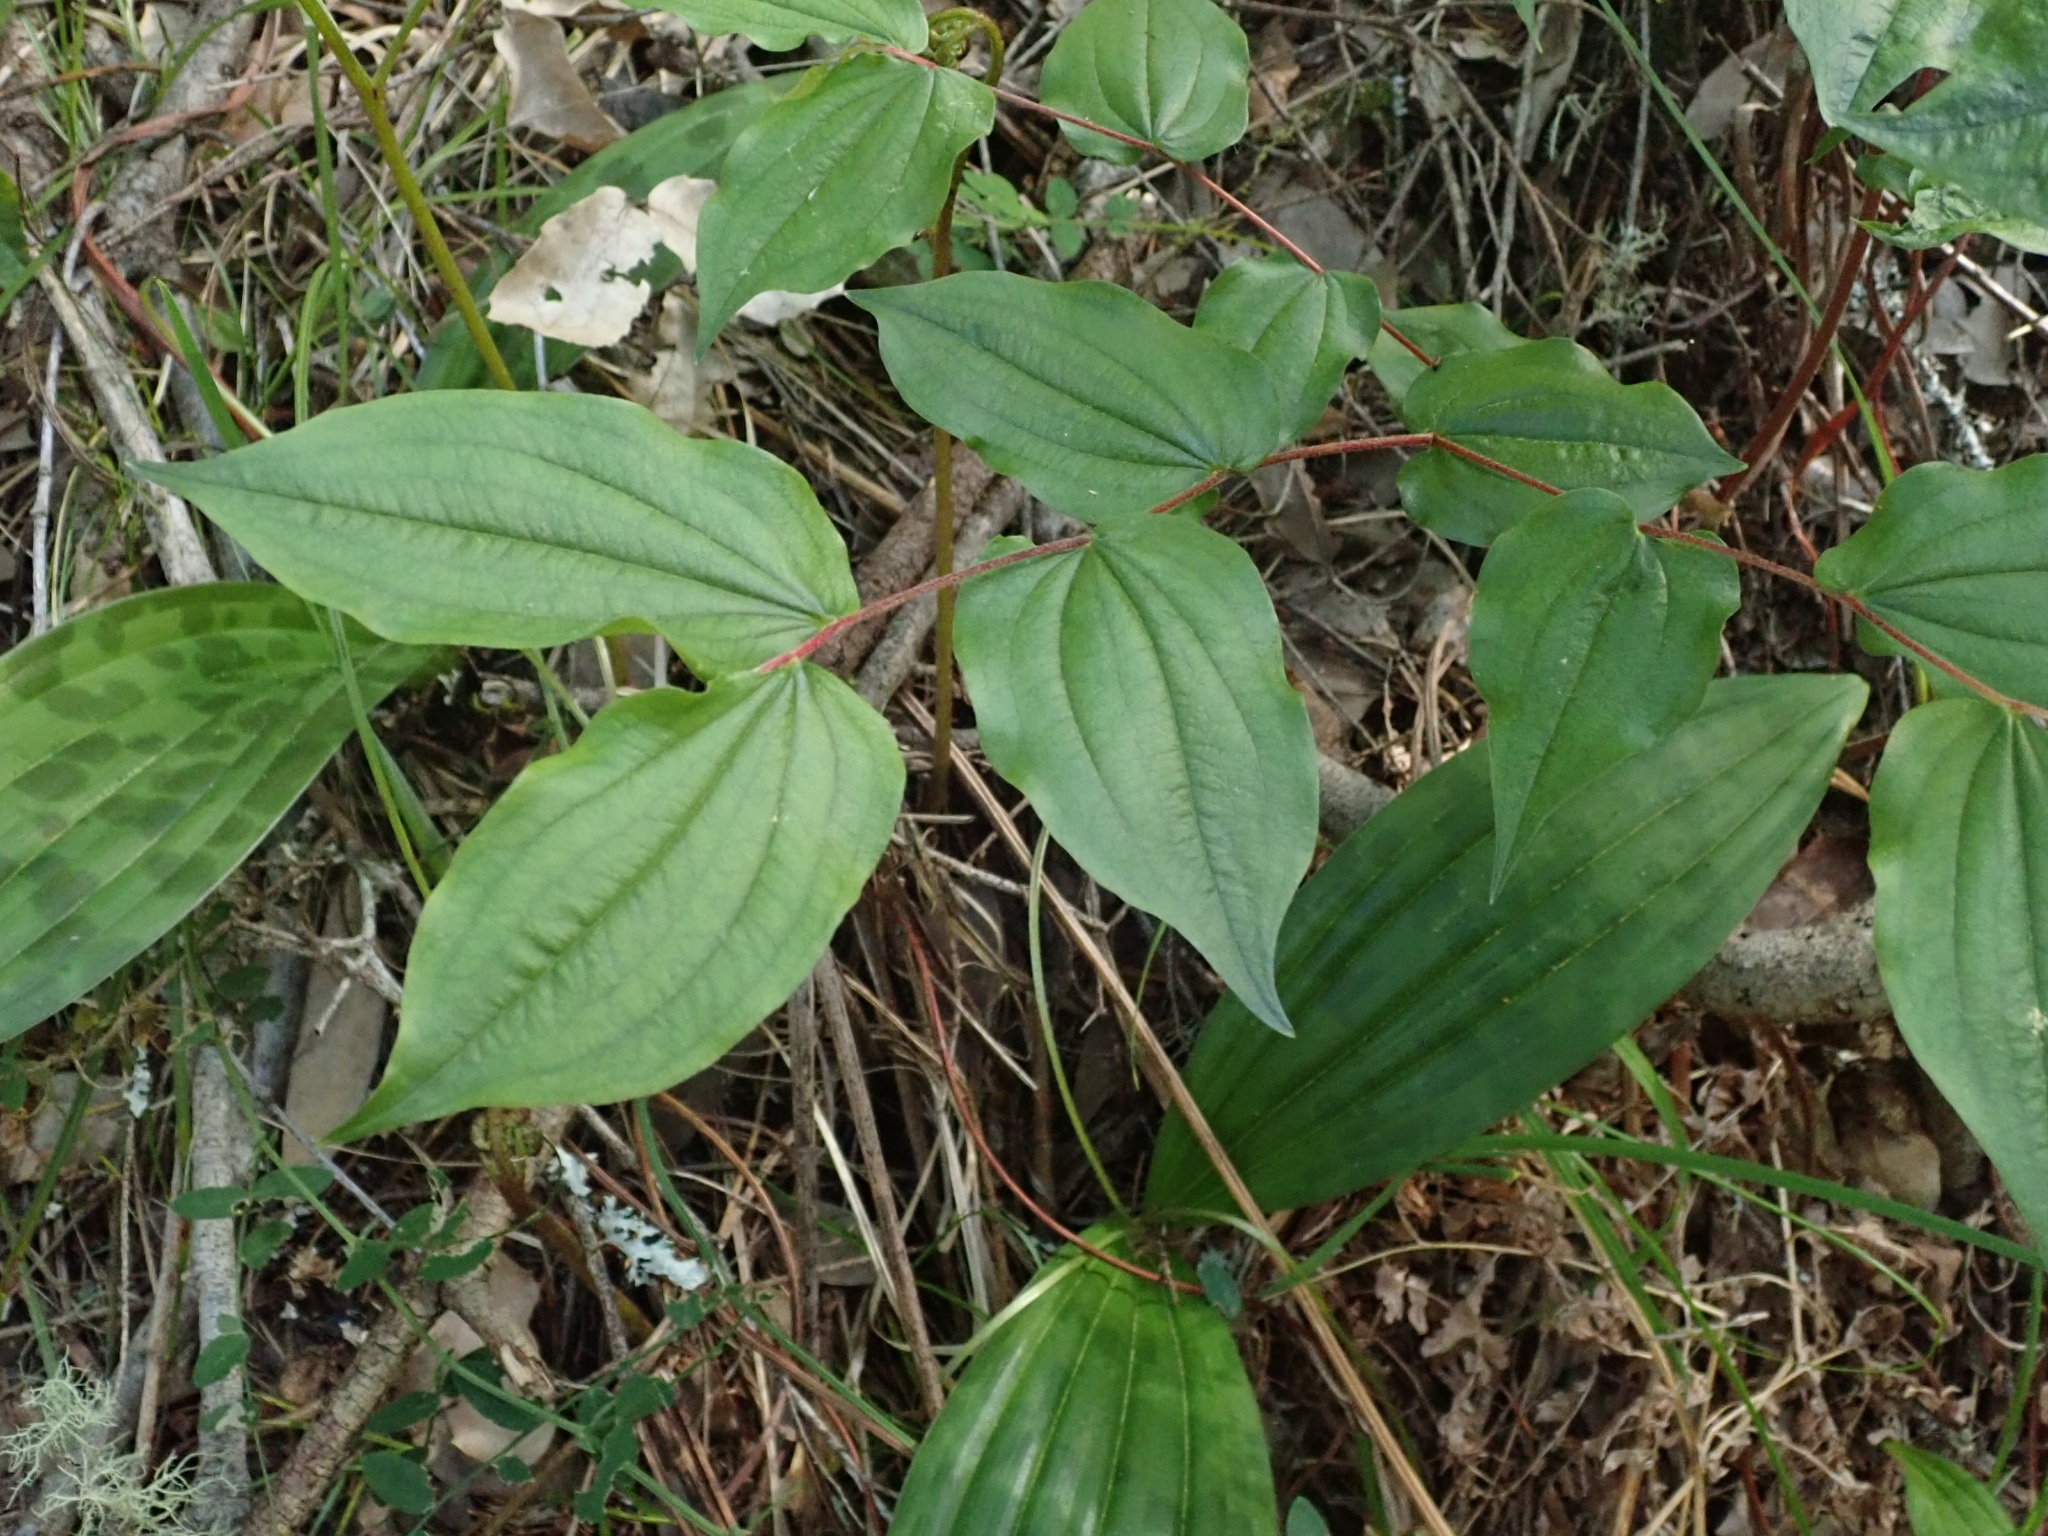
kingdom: Plantae
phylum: Tracheophyta
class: Liliopsida
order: Liliales
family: Liliaceae
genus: Prosartes
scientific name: Prosartes hookeri
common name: Fairy-bells
